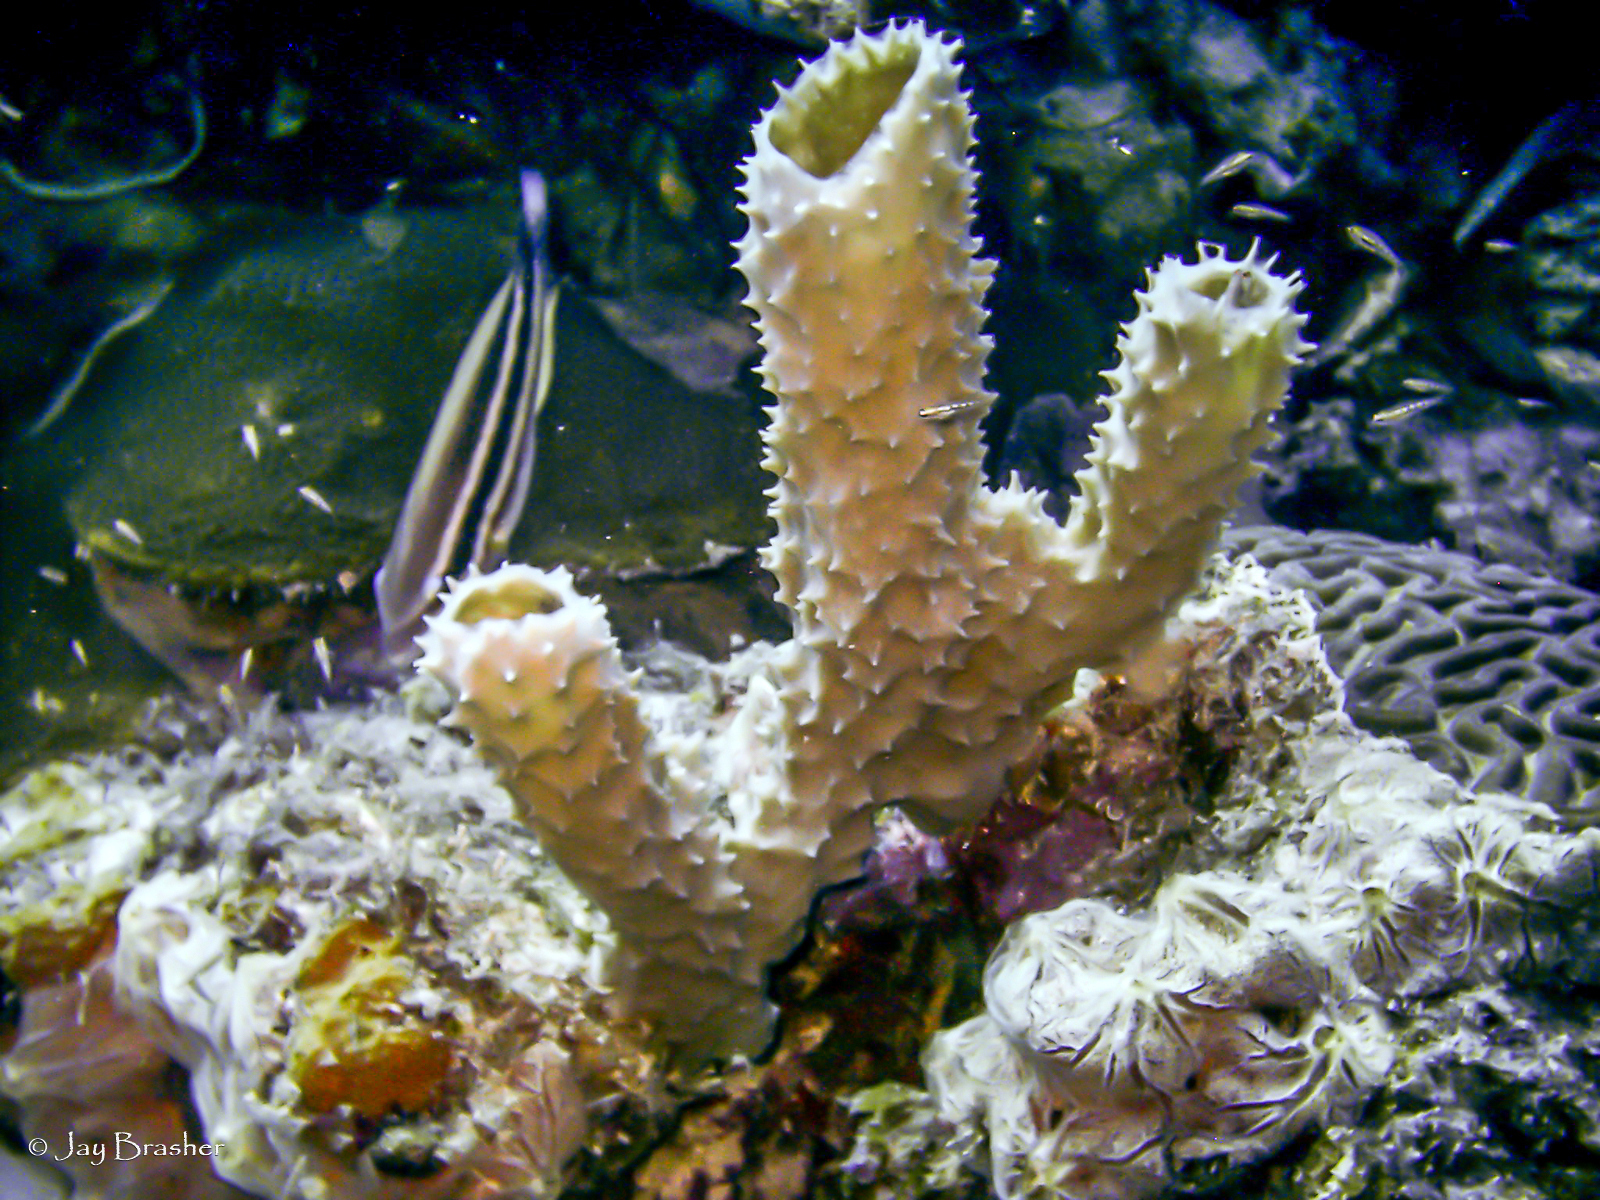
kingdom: Animalia
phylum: Porifera
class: Demospongiae
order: Haplosclerida
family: Callyspongiidae
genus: Callyspongia
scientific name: Callyspongia aculeata
